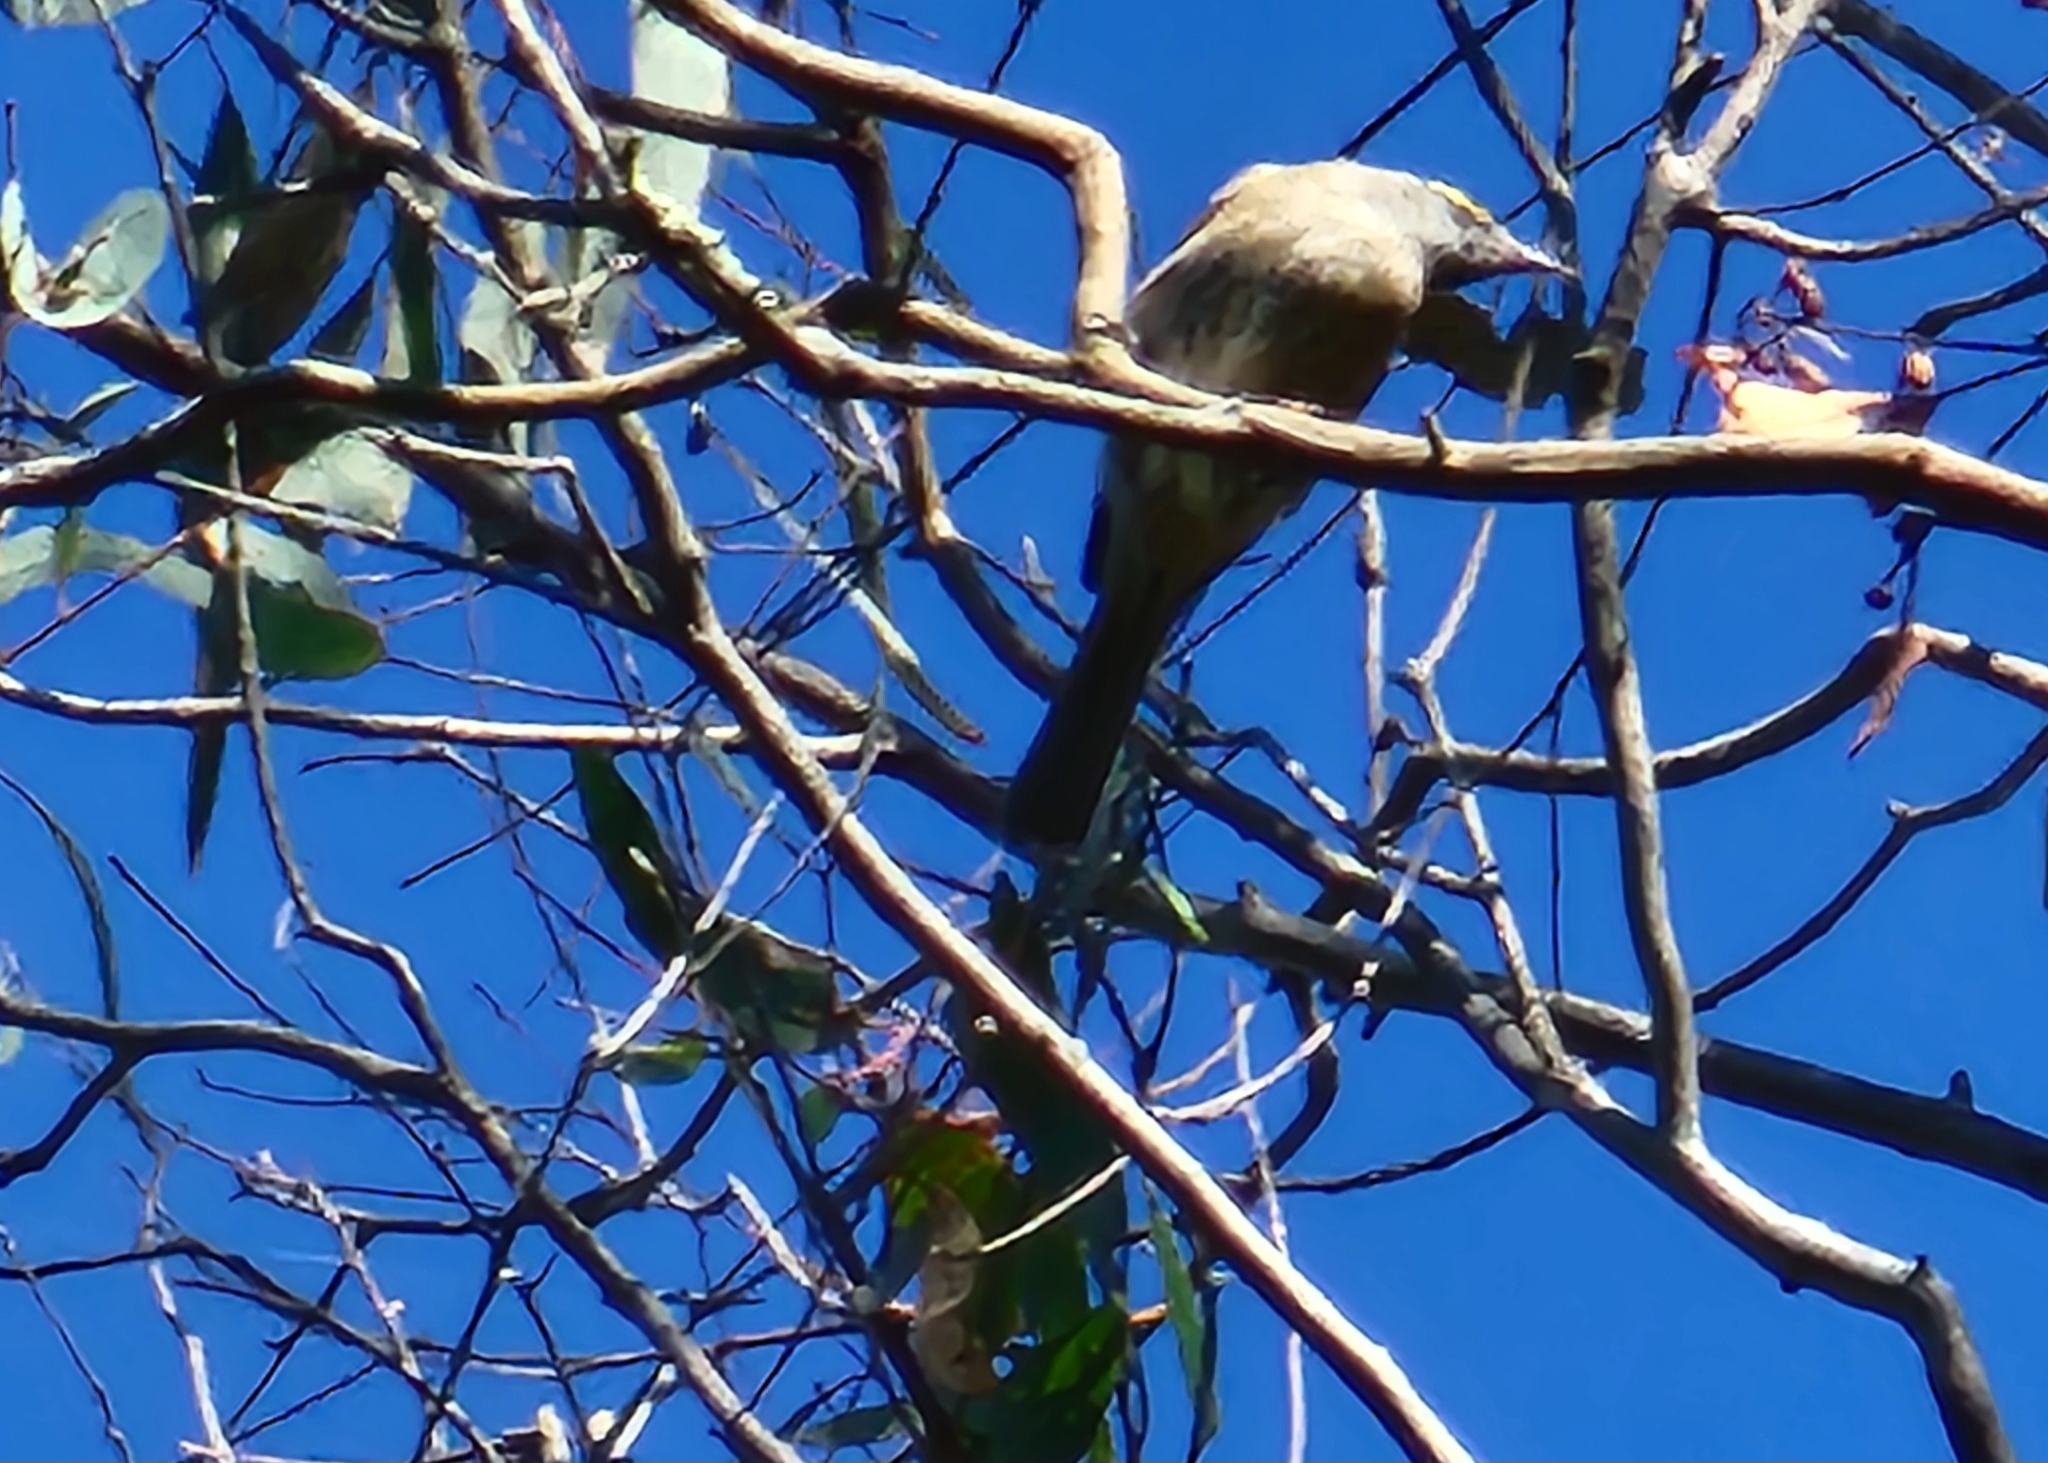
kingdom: Animalia
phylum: Chordata
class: Aves
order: Passeriformes
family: Meliphagidae
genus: Caligavis
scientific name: Caligavis chrysops
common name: Yellow-faced honeyeater
